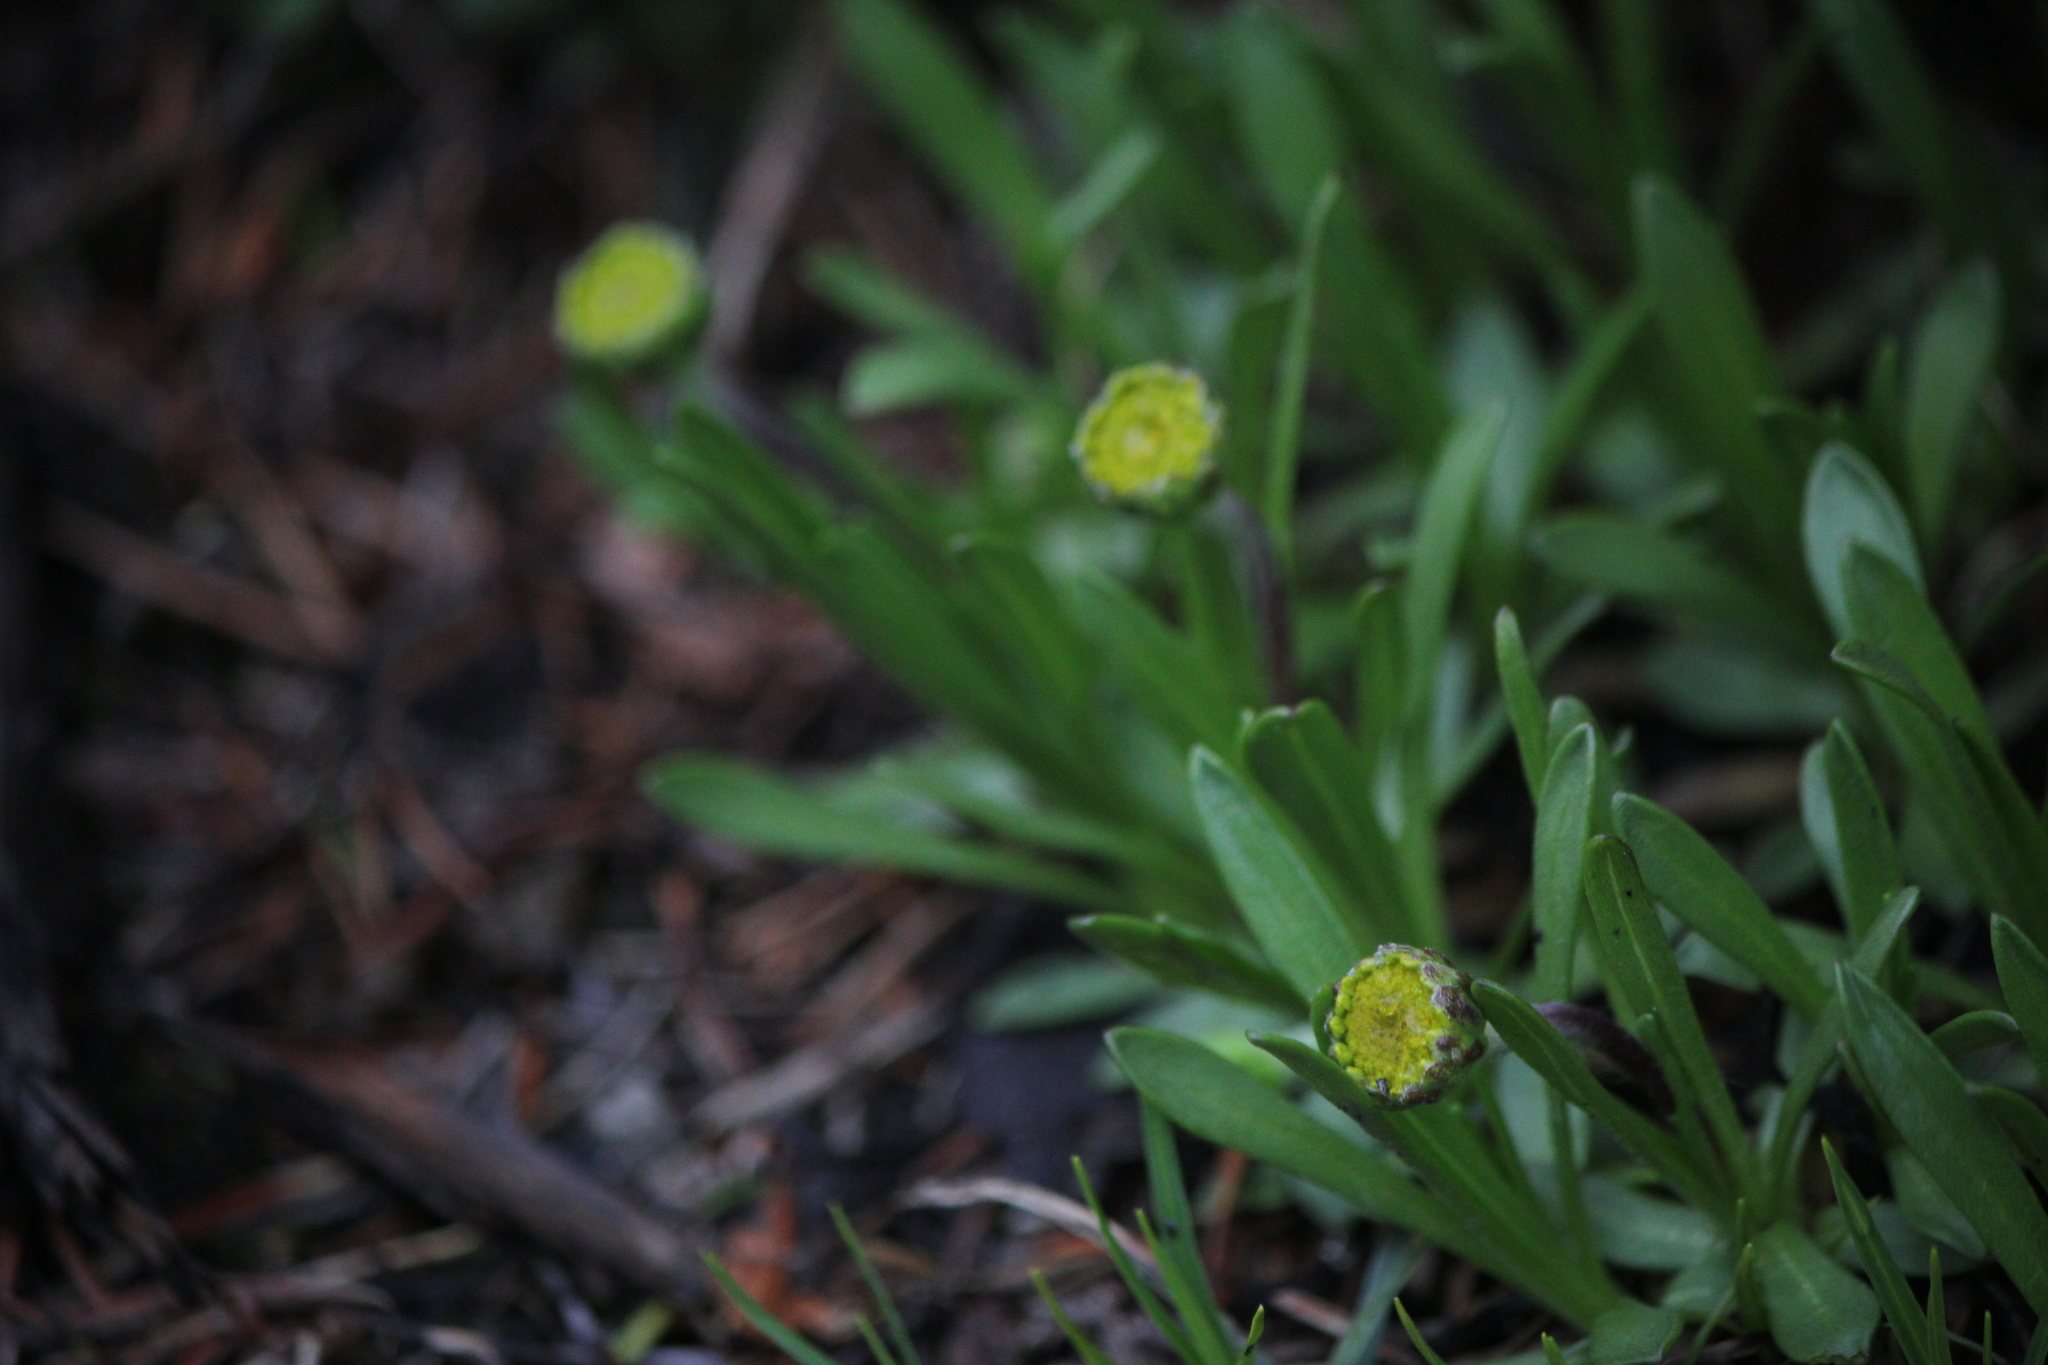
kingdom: Plantae
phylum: Tracheophyta
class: Magnoliopsida
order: Asterales
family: Asteraceae
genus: Tetraneuris
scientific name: Tetraneuris herbacea
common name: Lakeside daisy
